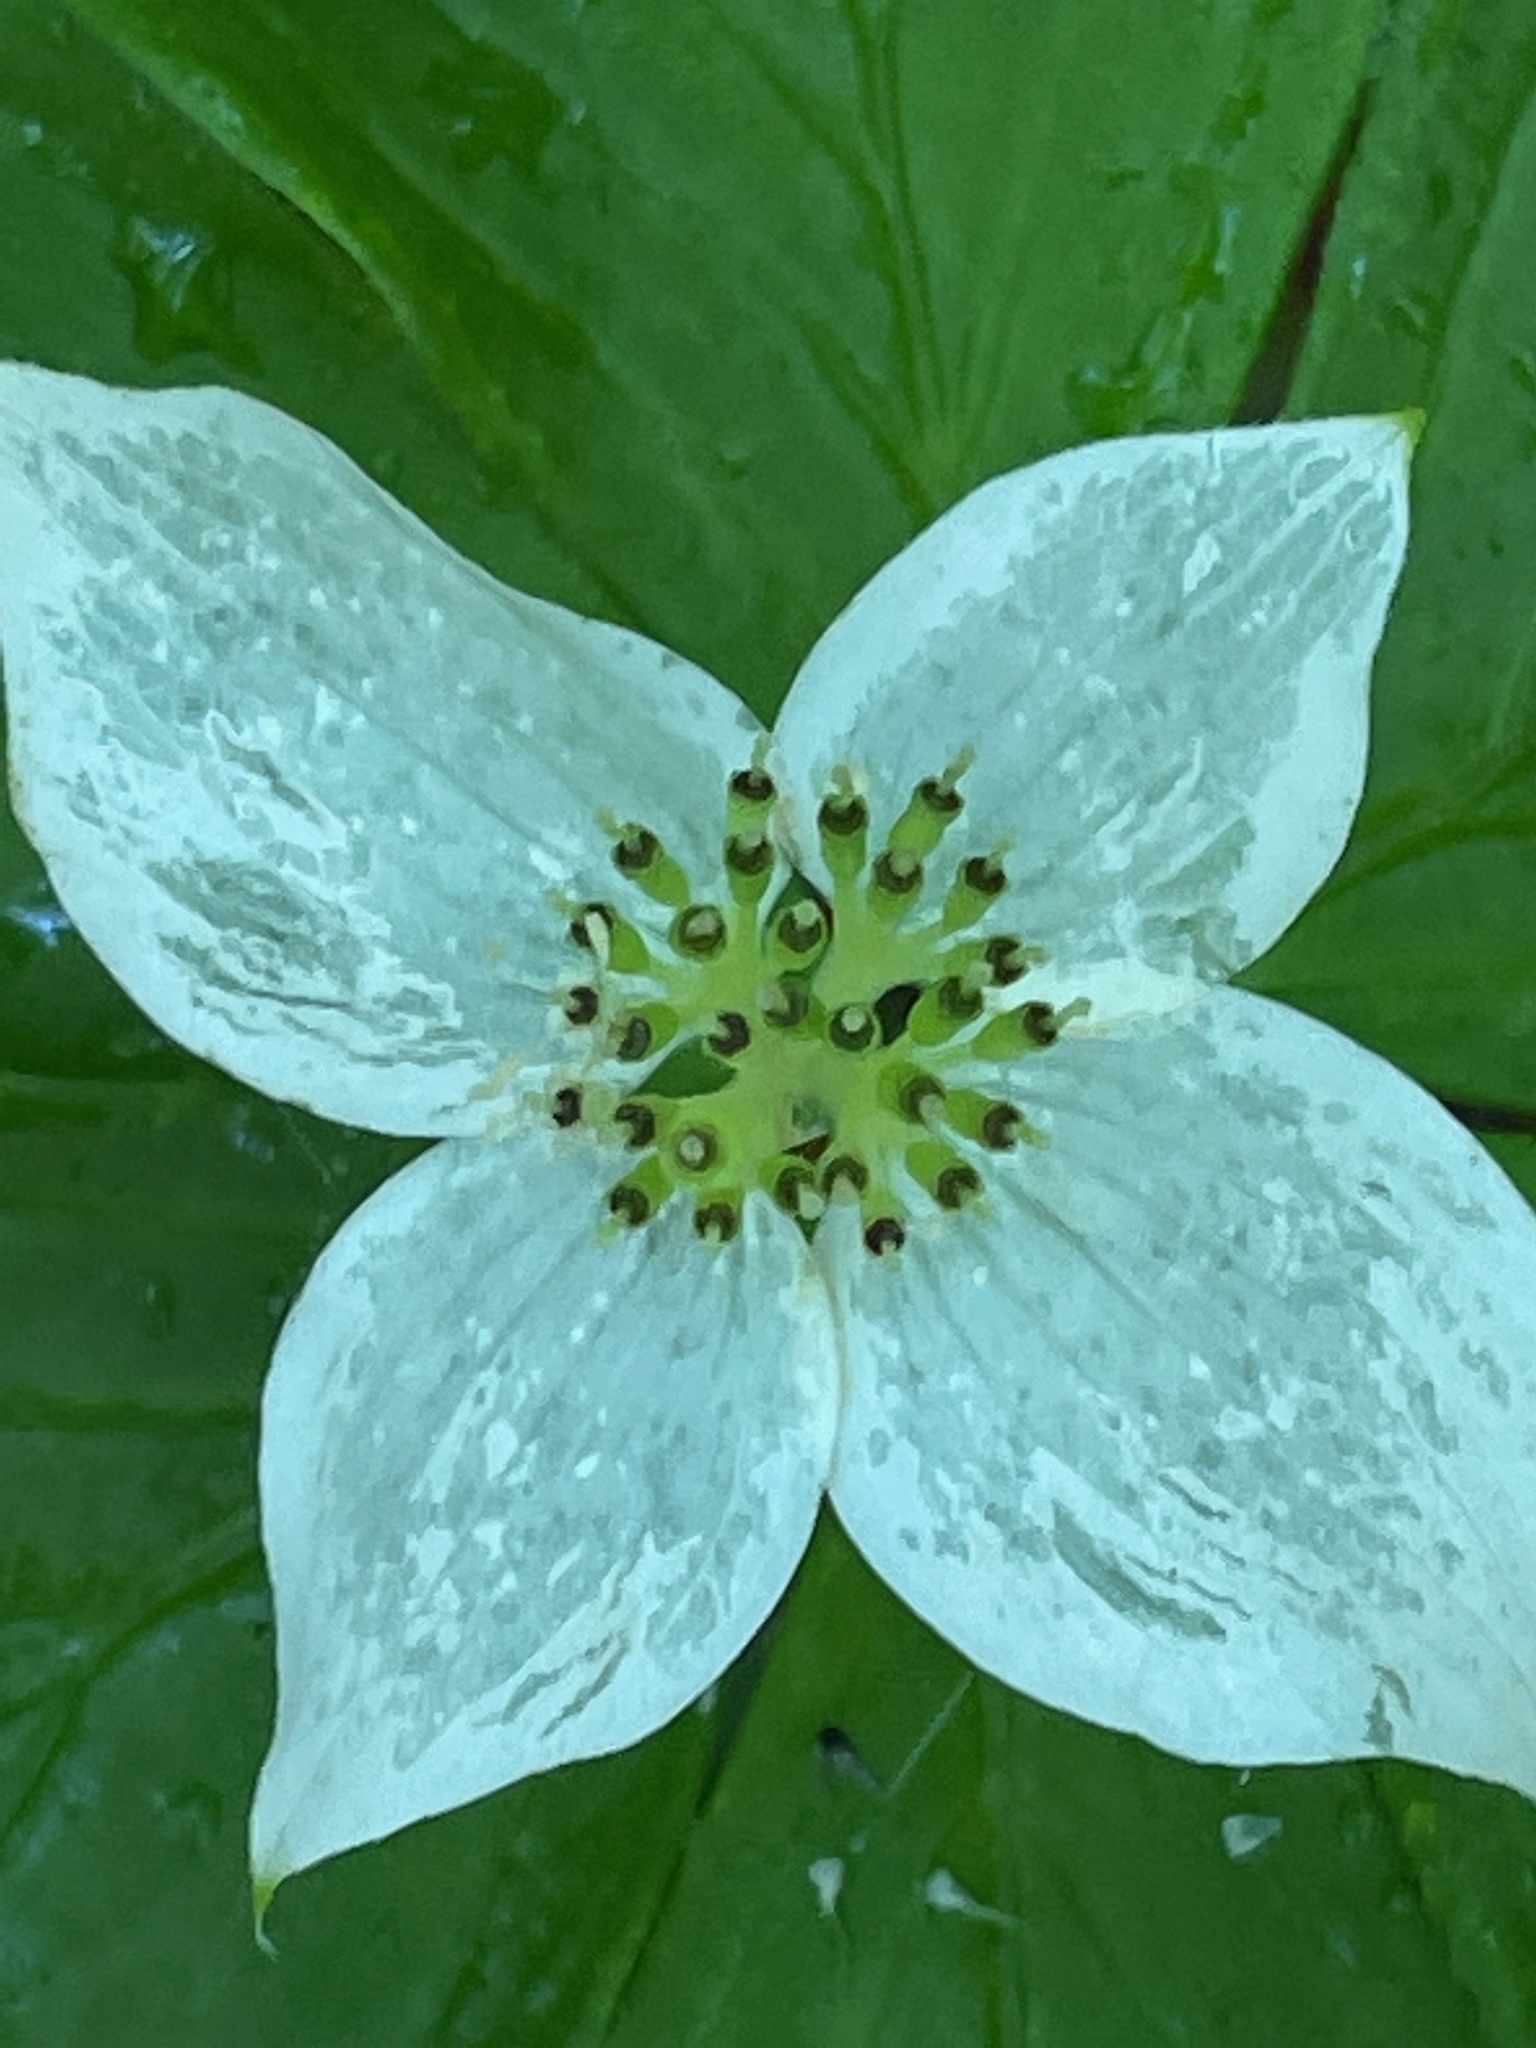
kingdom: Plantae
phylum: Tracheophyta
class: Magnoliopsida
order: Cornales
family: Cornaceae
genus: Cornus
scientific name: Cornus canadensis
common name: Creeping dogwood
